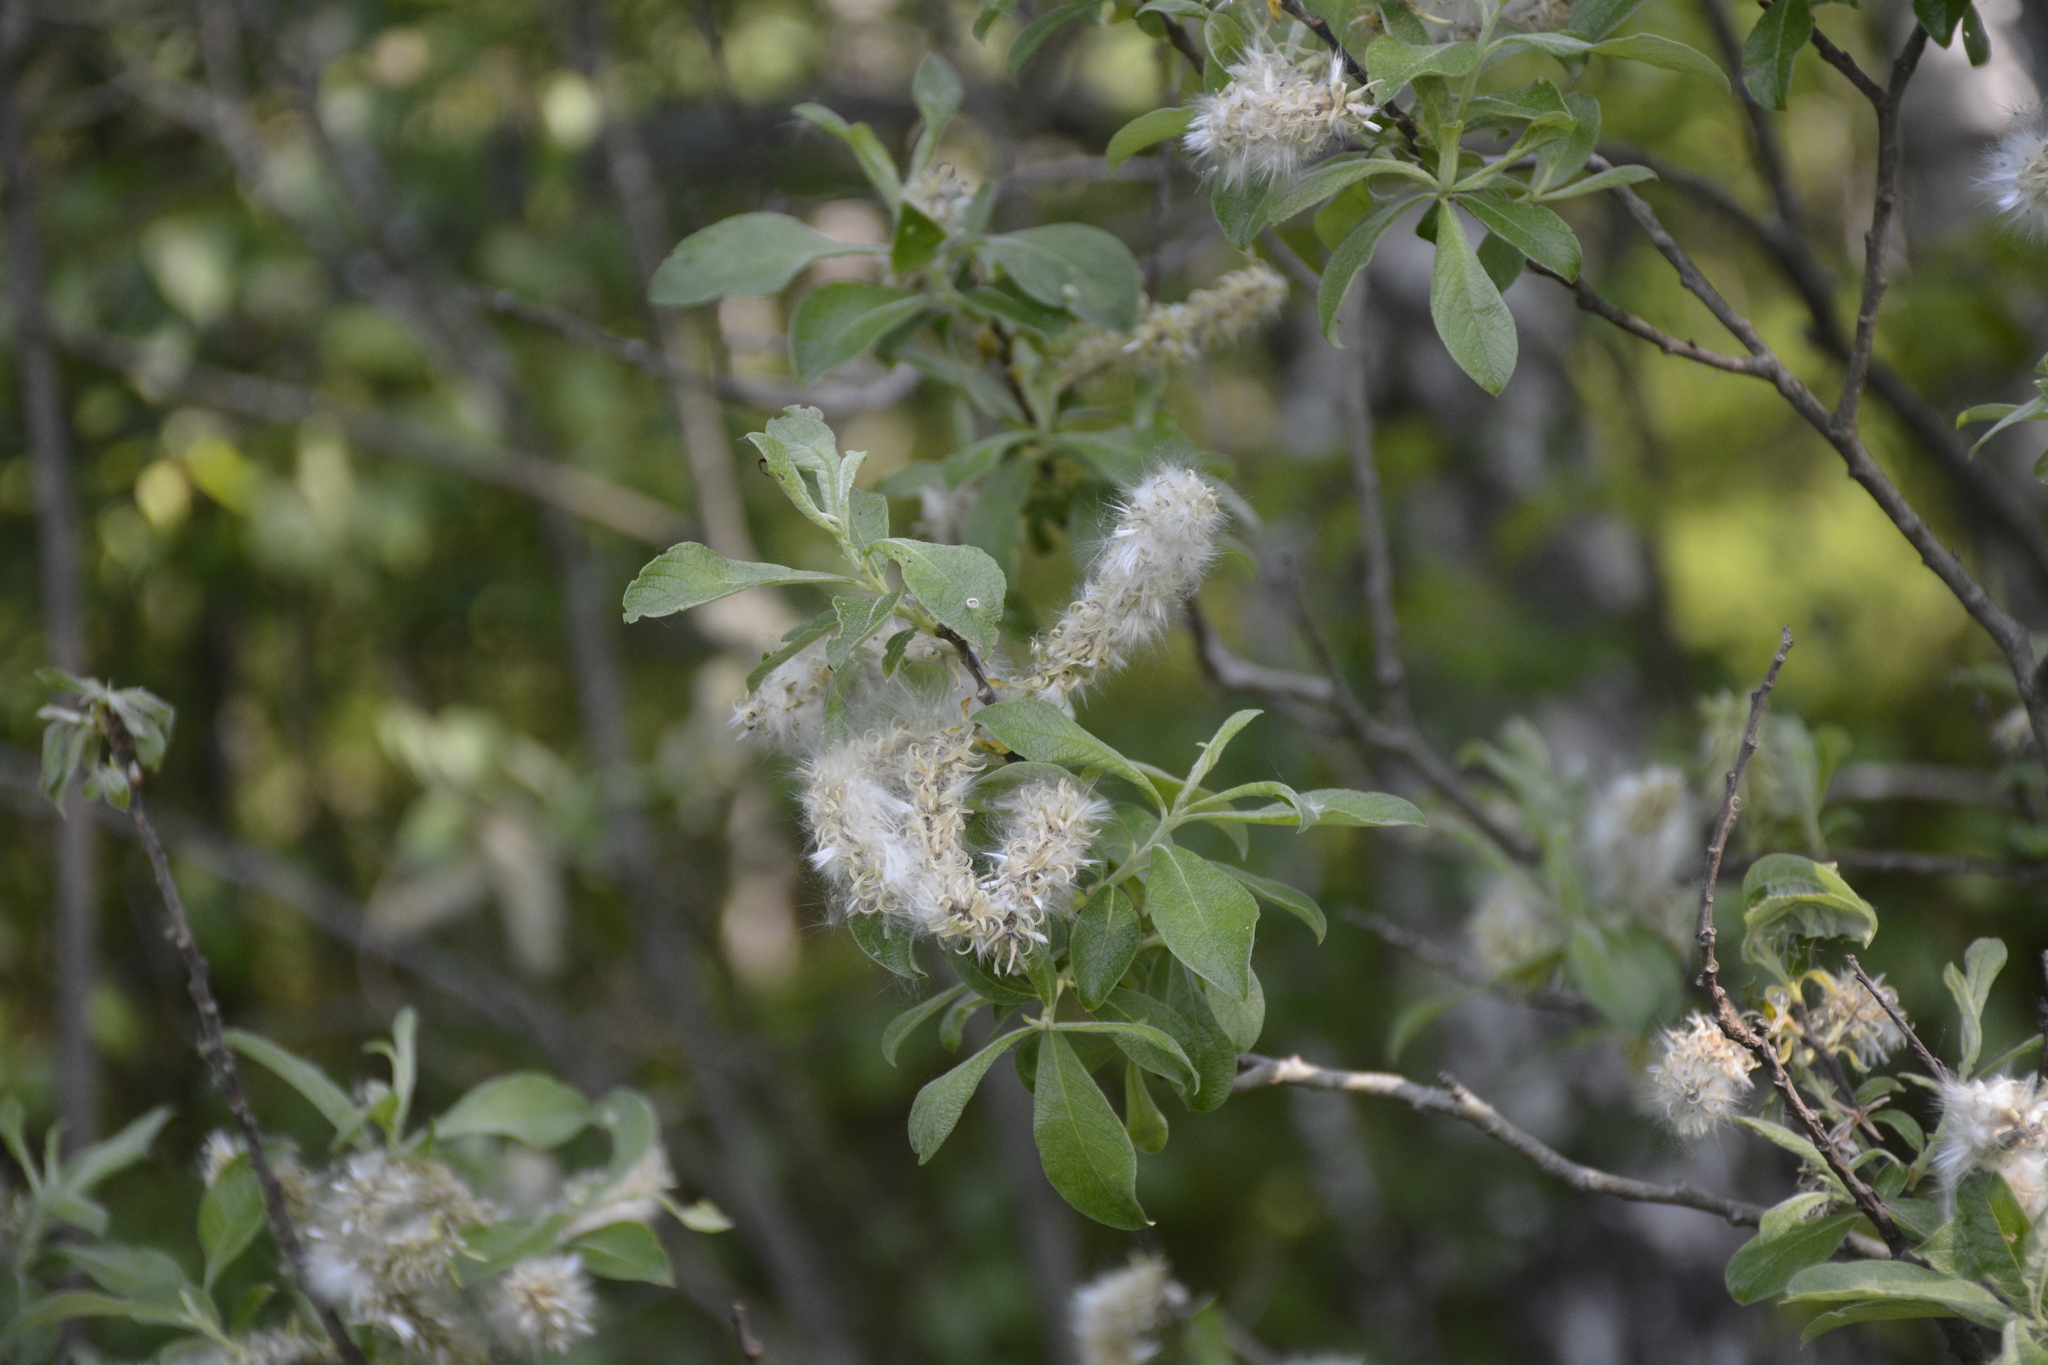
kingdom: Plantae
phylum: Tracheophyta
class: Magnoliopsida
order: Malpighiales
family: Salicaceae
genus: Salix
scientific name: Salix cinerea
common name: Common sallow
